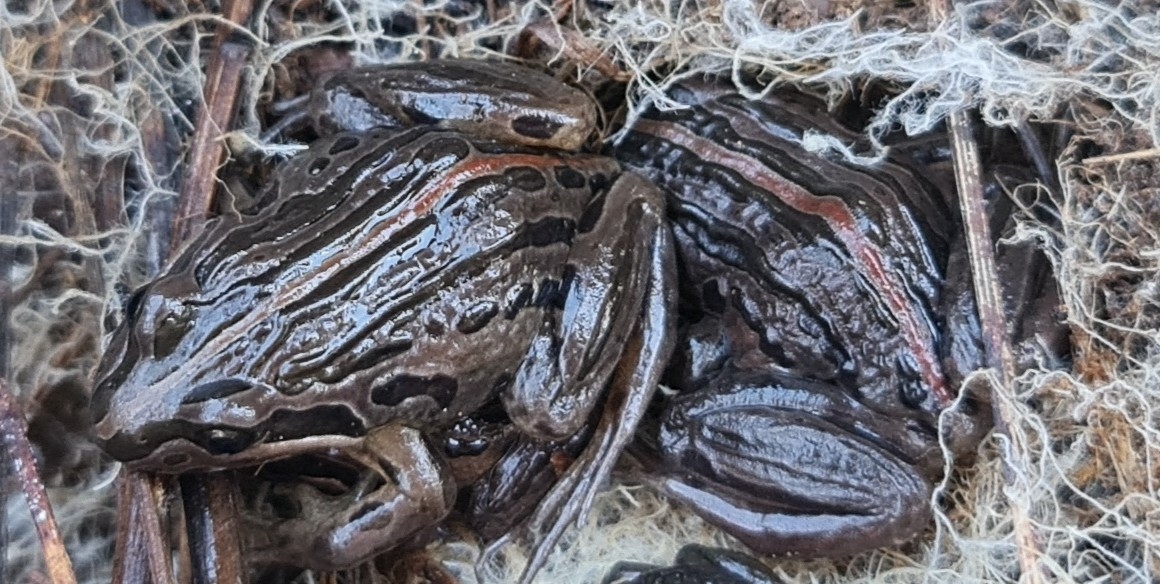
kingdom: Animalia
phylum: Chordata
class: Amphibia
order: Anura
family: Limnodynastidae
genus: Limnodynastes
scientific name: Limnodynastes peronii
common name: Brown frog
